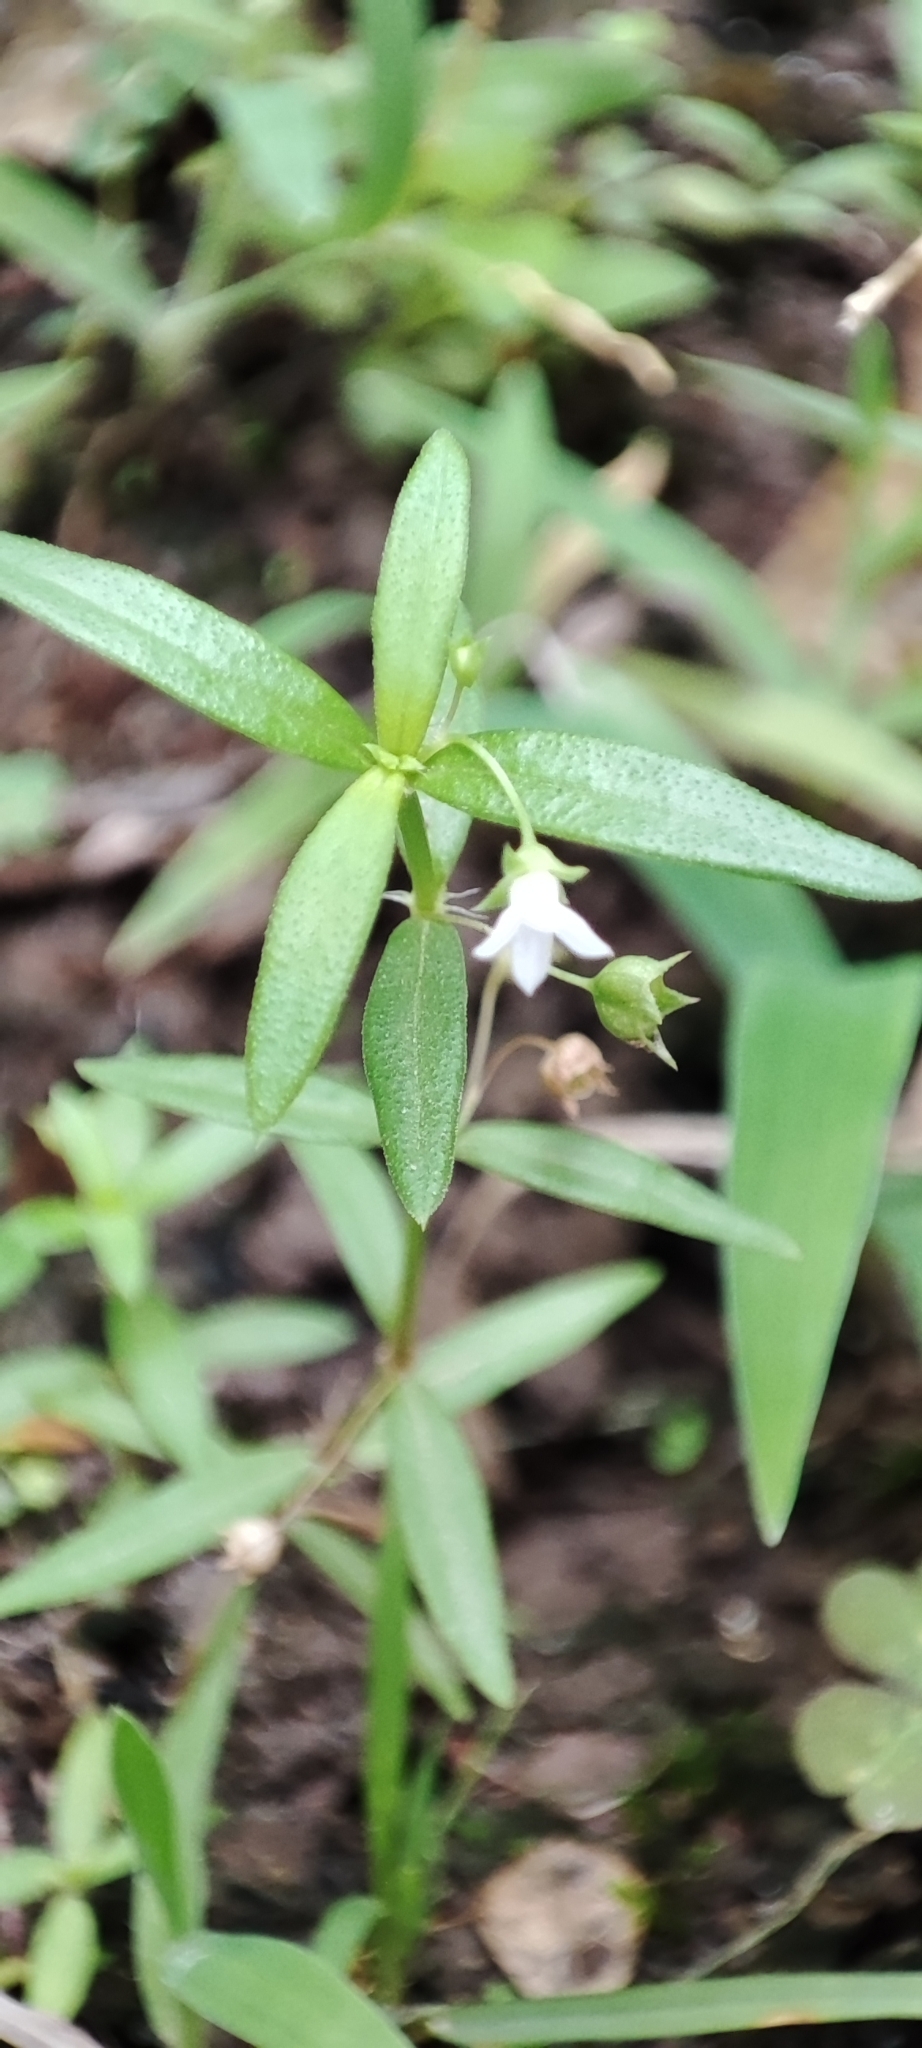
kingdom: Plantae
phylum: Tracheophyta
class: Magnoliopsida
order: Gentianales
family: Rubiaceae
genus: Oldenlandia
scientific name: Oldenlandia corymbosa
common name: Flat-top mille graines
